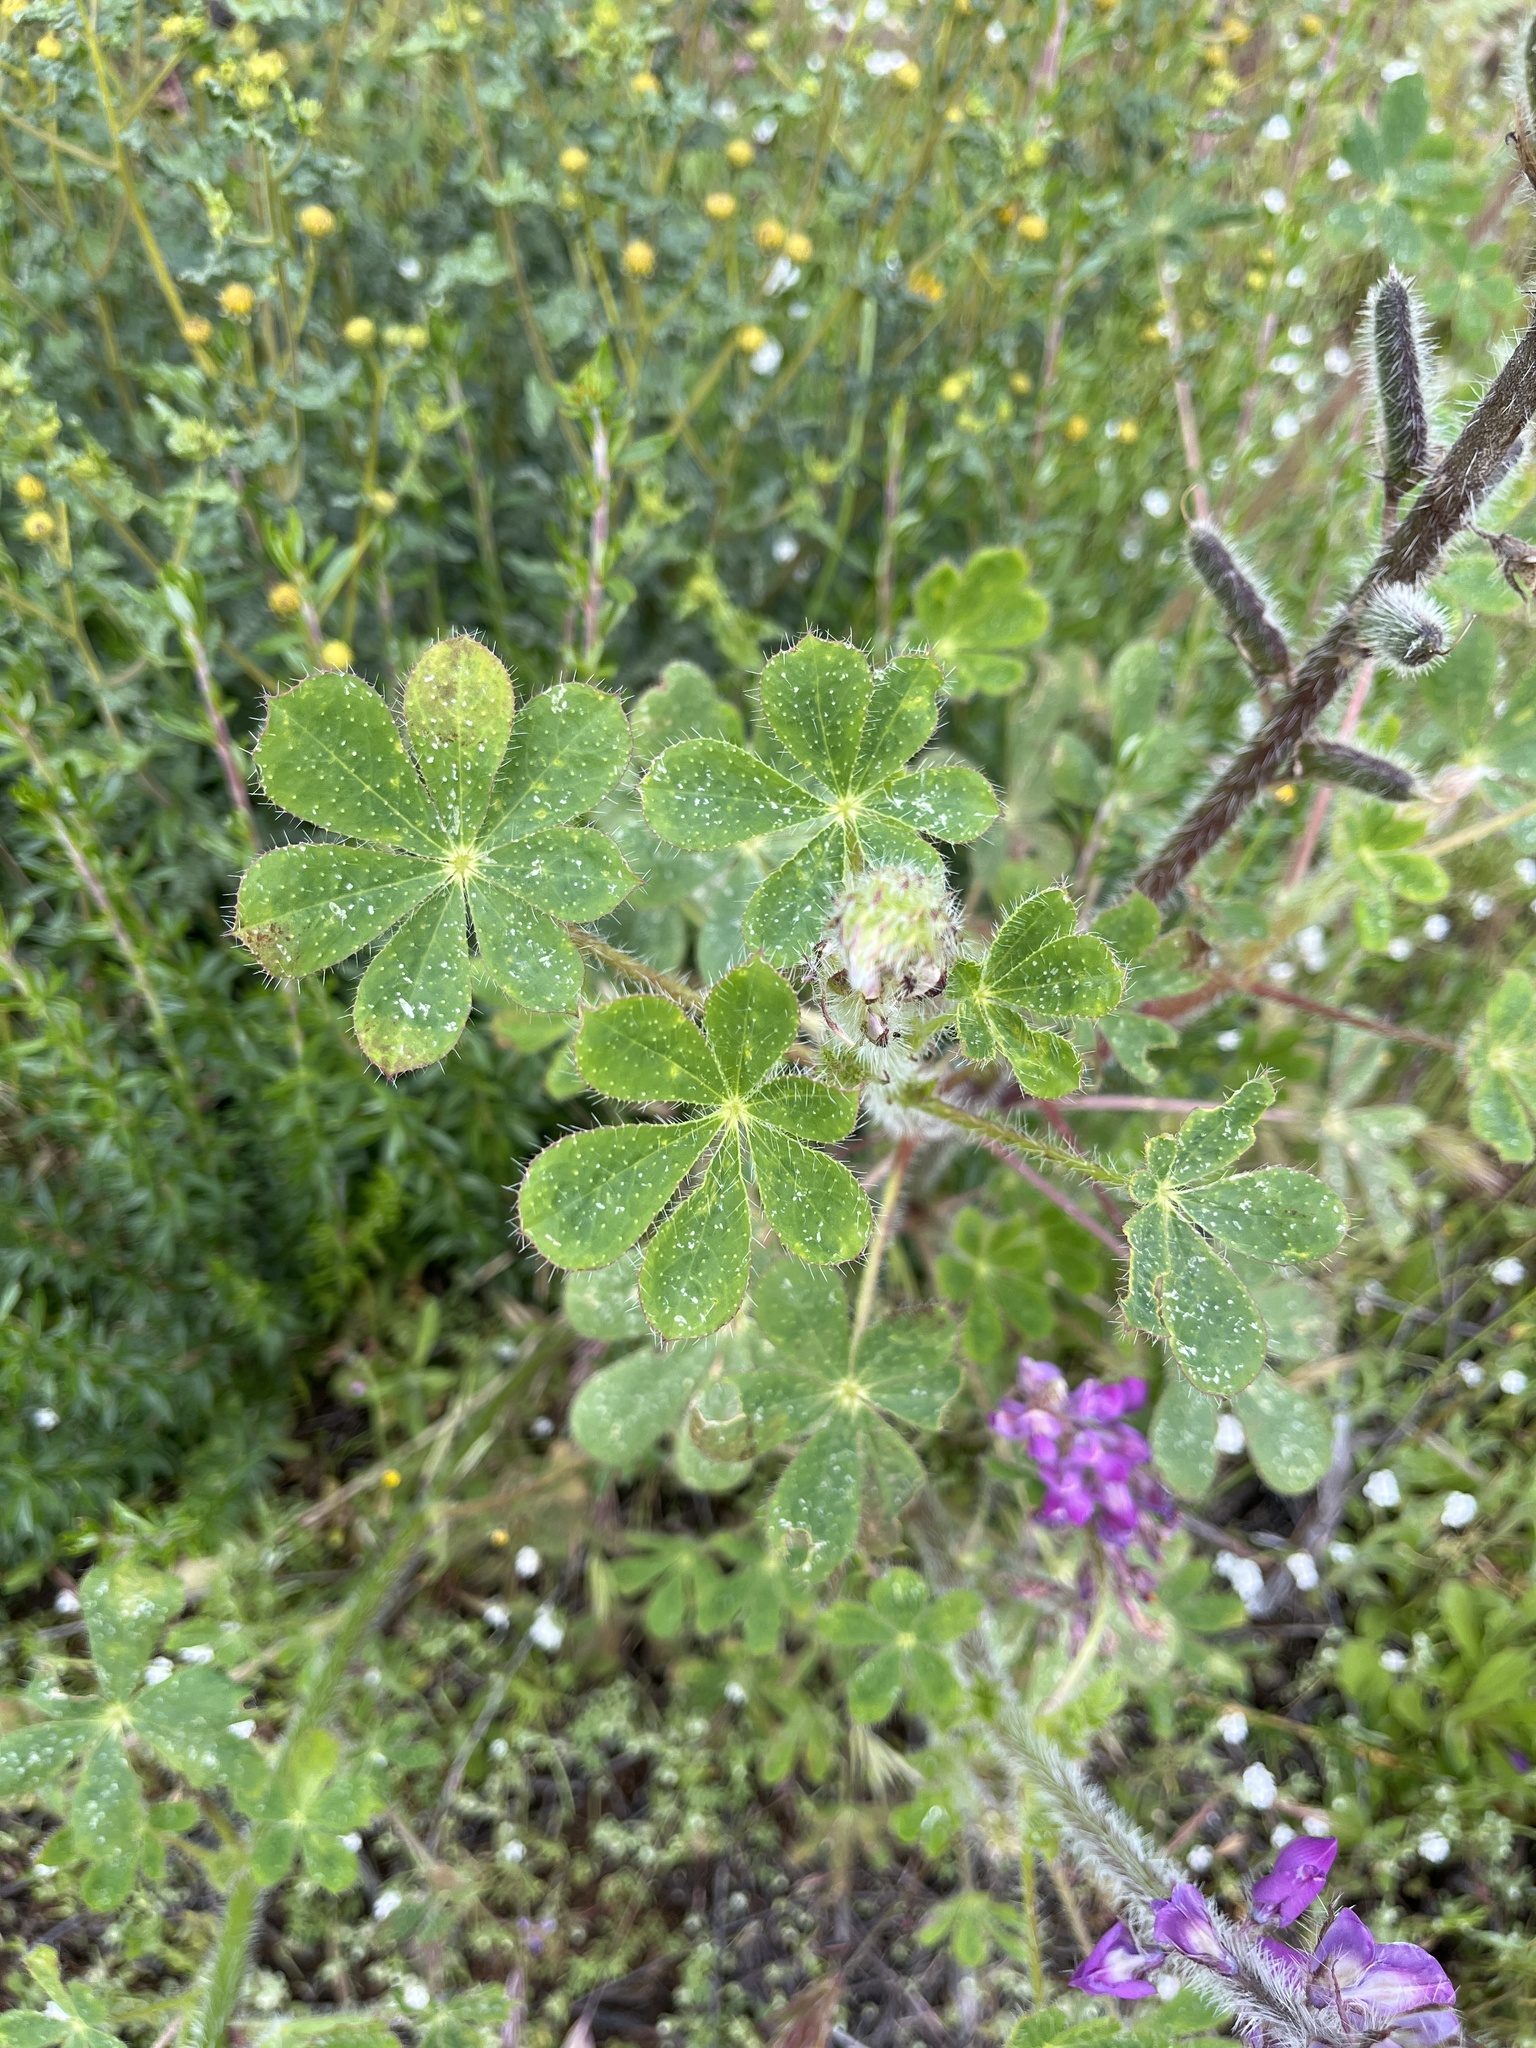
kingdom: Plantae
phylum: Tracheophyta
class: Magnoliopsida
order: Fabales
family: Fabaceae
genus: Lupinus
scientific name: Lupinus hirsutissimus
